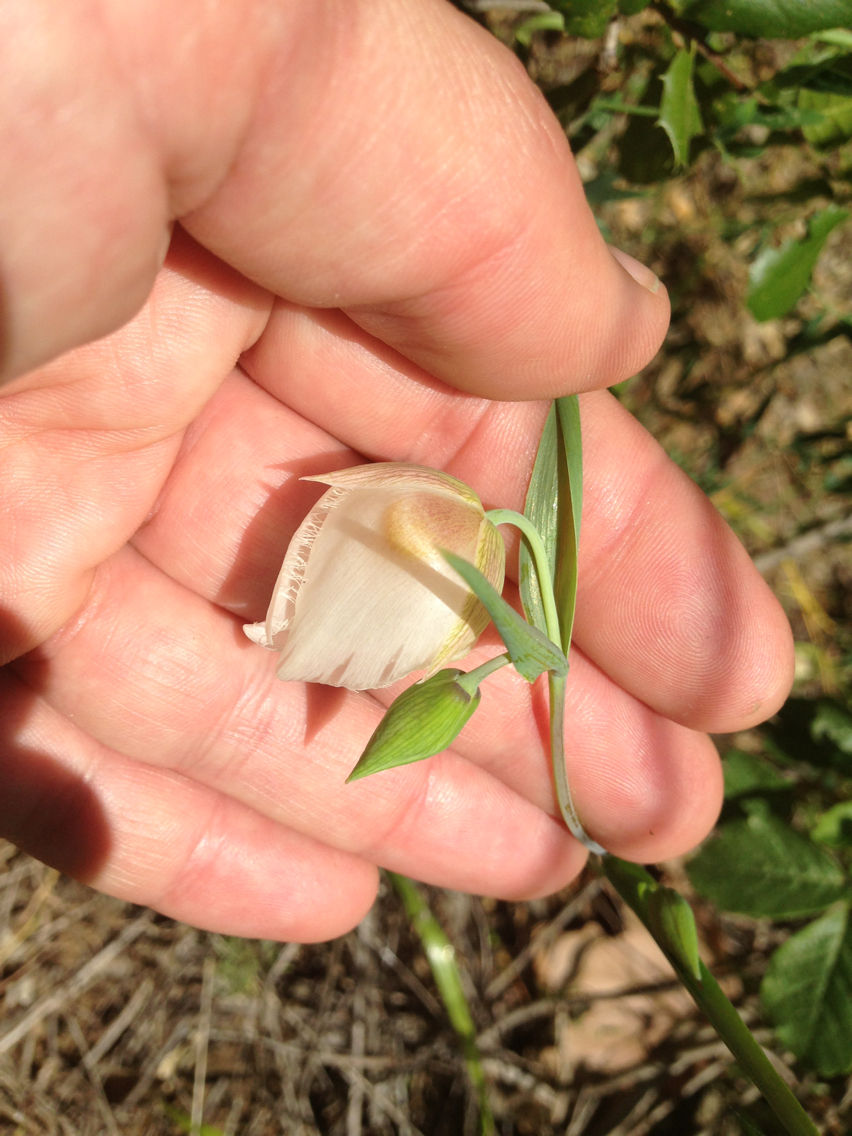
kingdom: Plantae
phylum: Tracheophyta
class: Liliopsida
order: Liliales
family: Liliaceae
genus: Calochortus
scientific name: Calochortus albus
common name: Fairy-lantern
